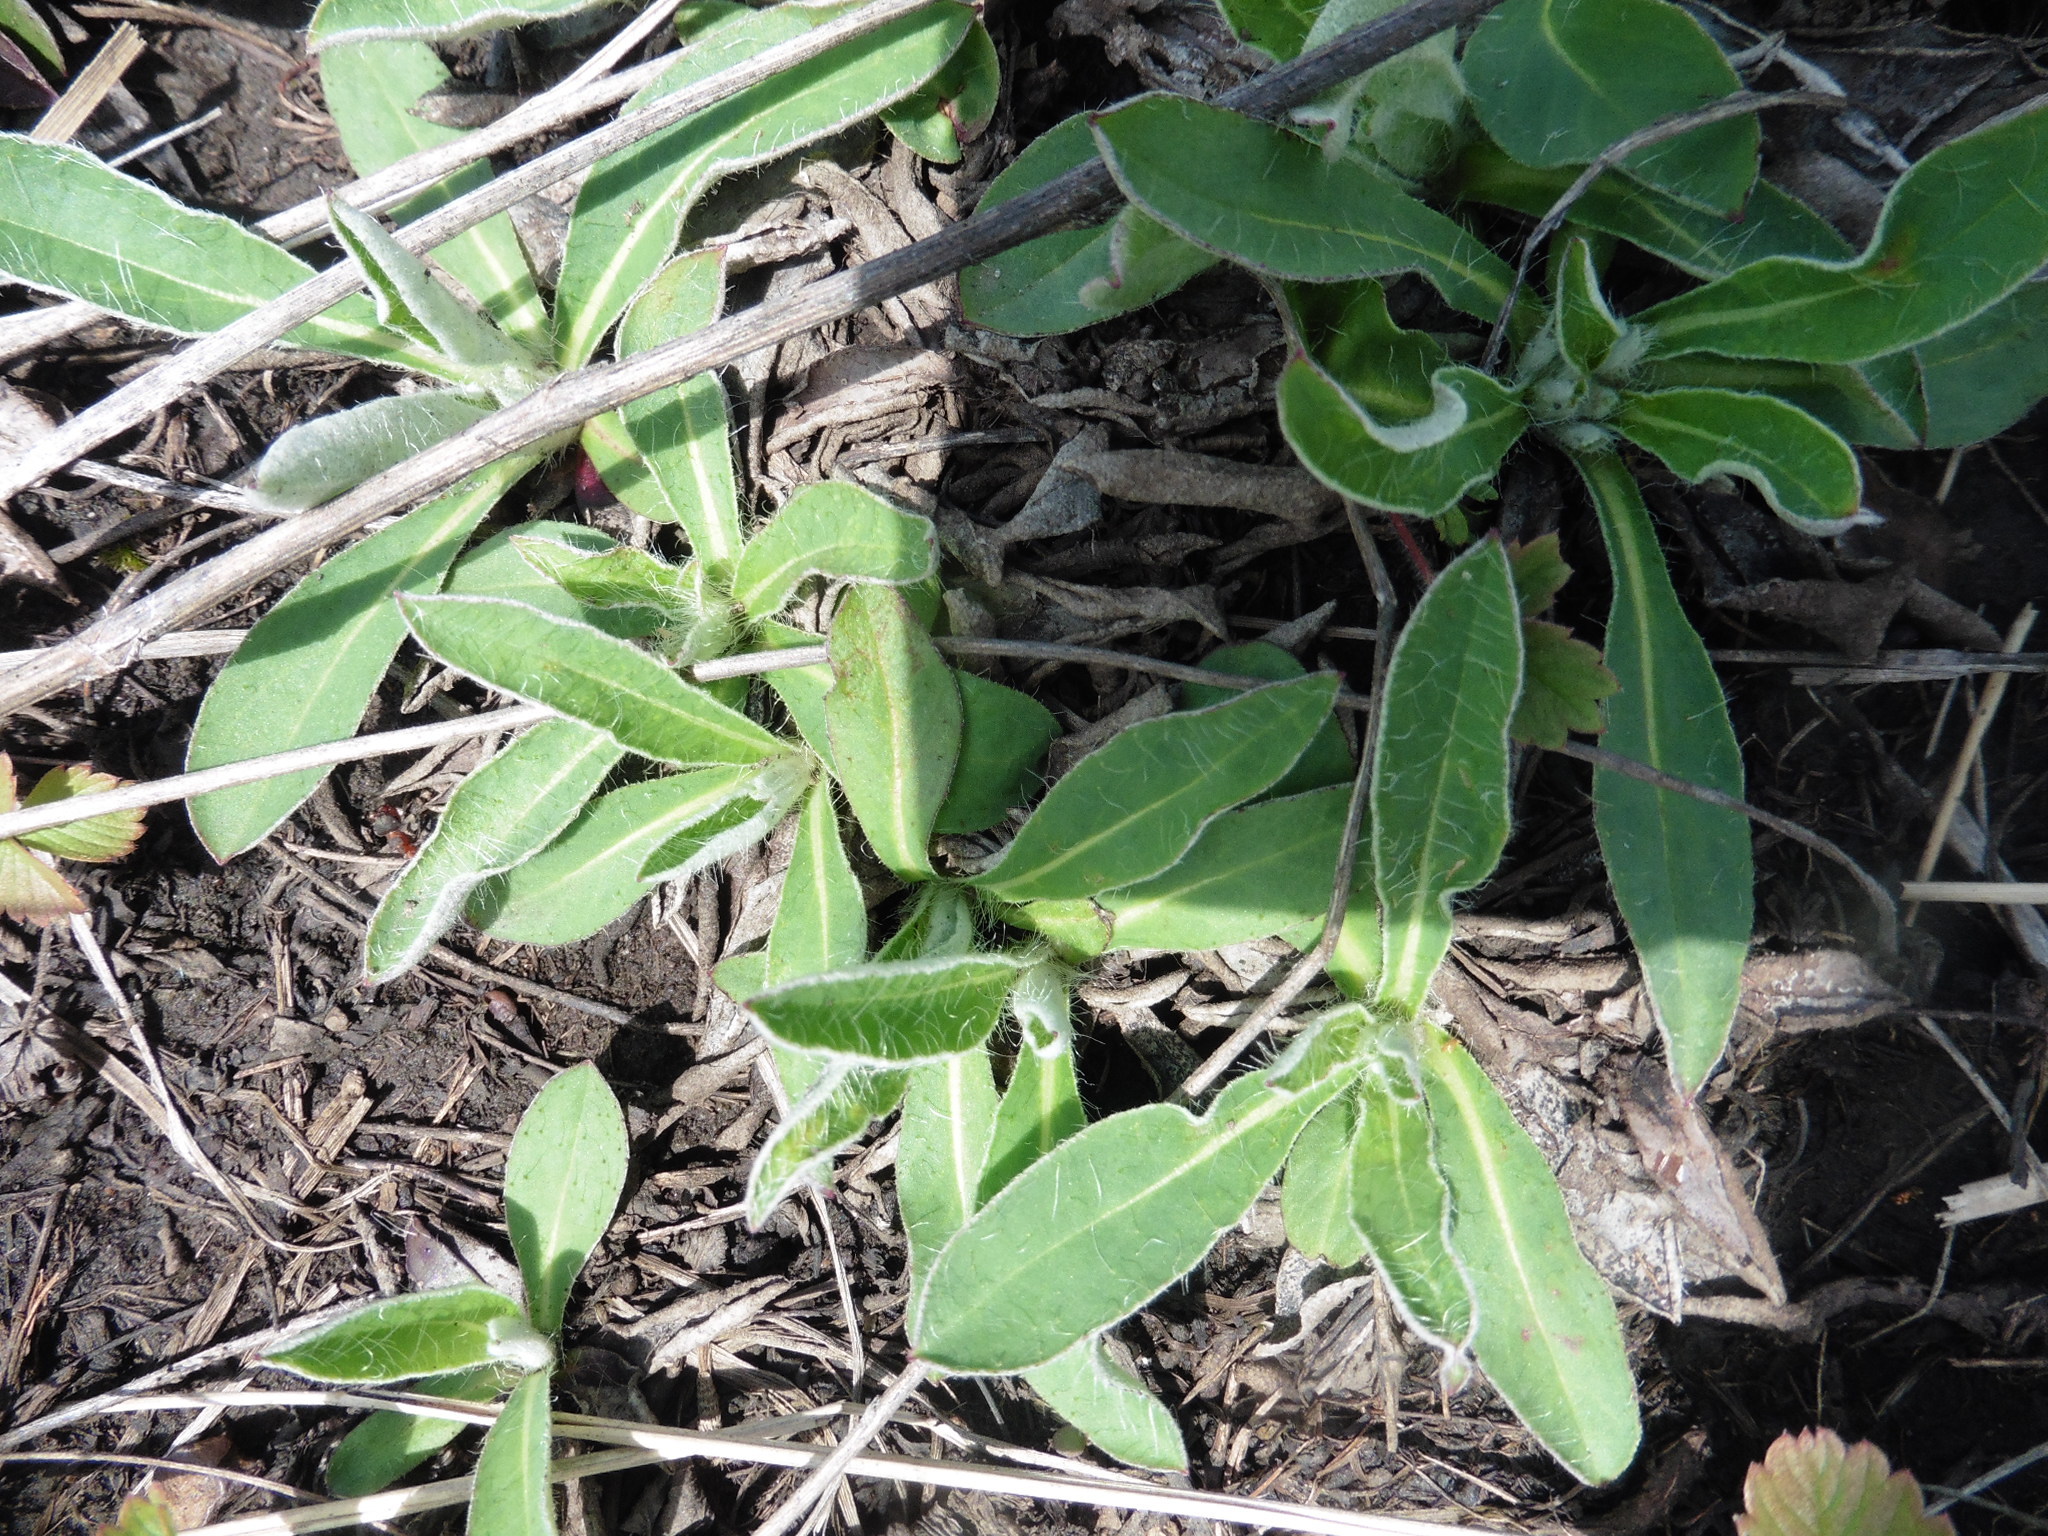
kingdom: Plantae
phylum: Tracheophyta
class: Magnoliopsida
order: Asterales
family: Asteraceae
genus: Pilosella
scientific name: Pilosella officinarum
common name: Mouse-ear hawkweed
